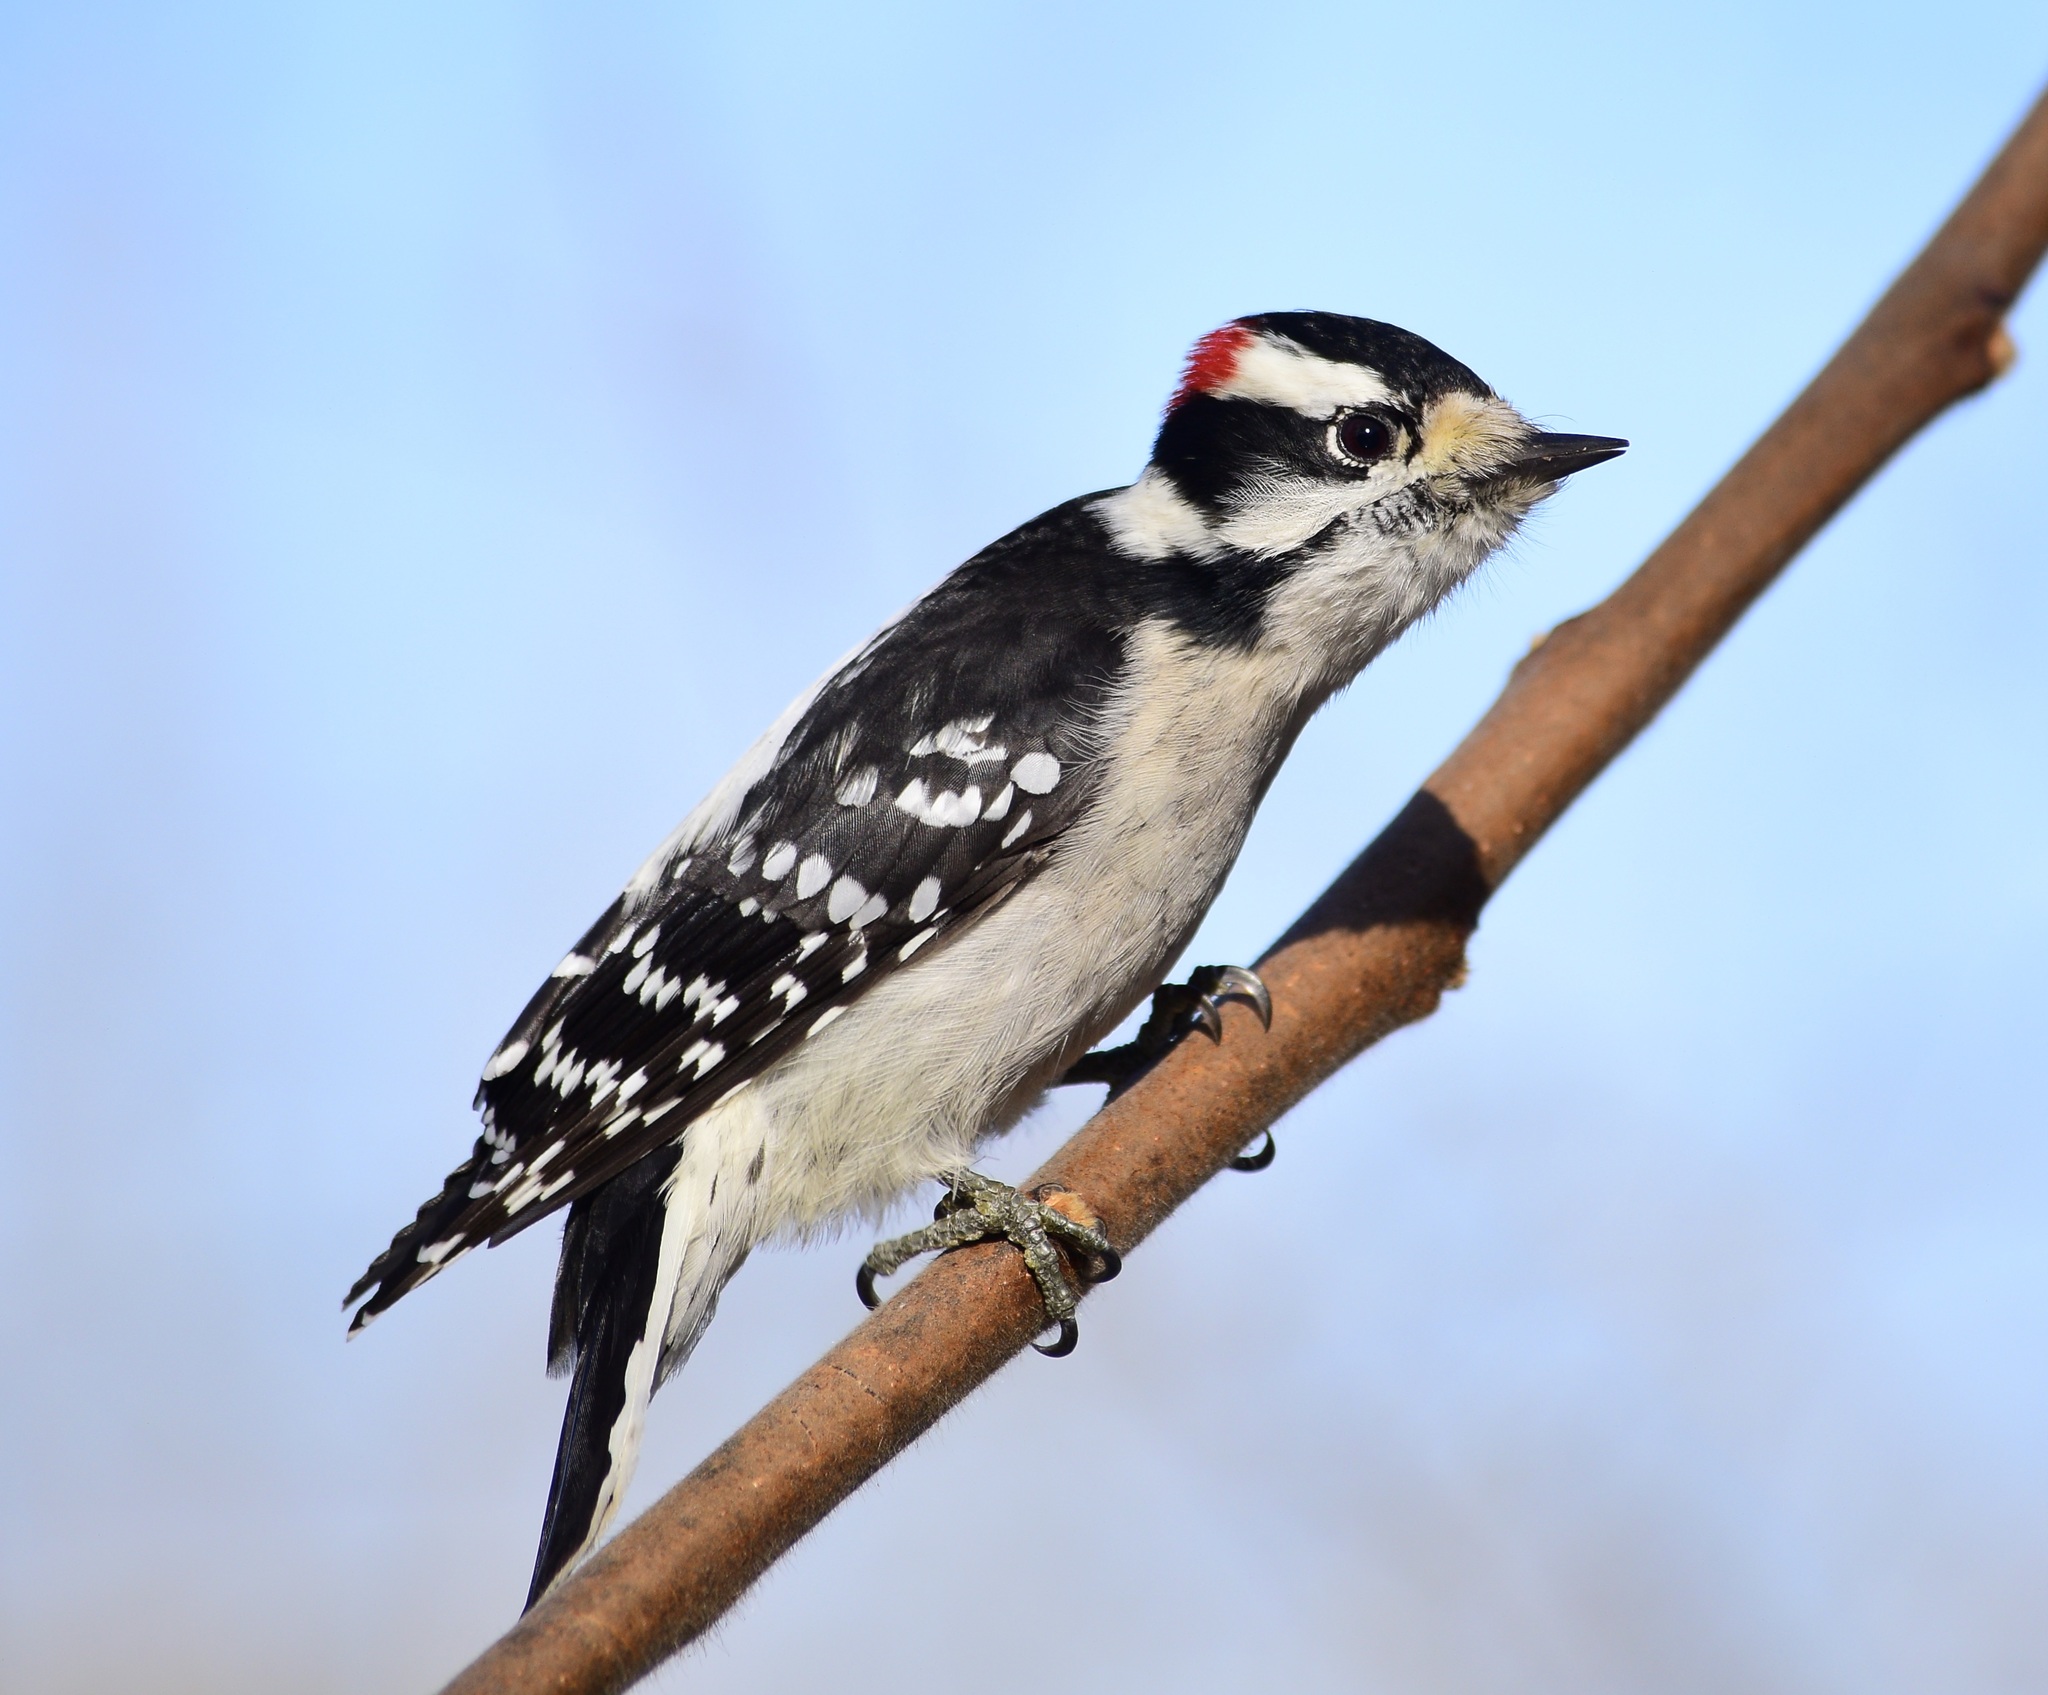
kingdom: Animalia
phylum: Chordata
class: Aves
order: Piciformes
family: Picidae
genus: Dryobates
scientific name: Dryobates pubescens
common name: Downy woodpecker
